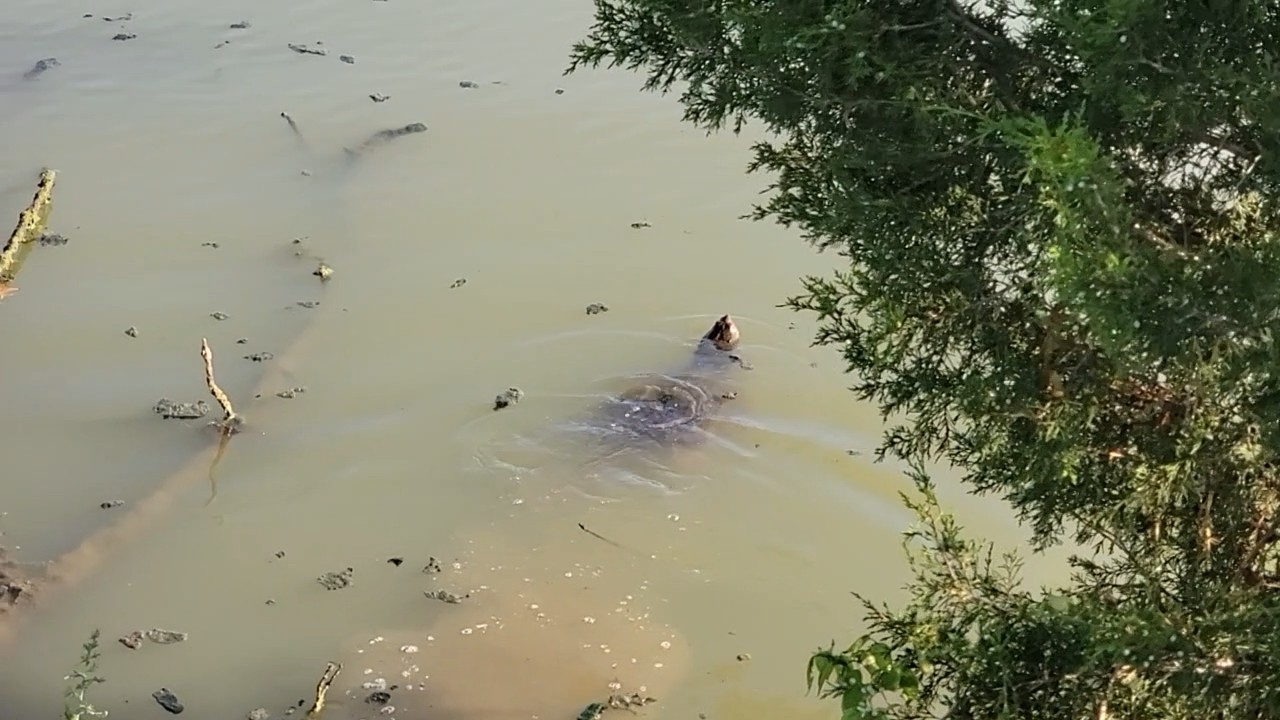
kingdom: Animalia
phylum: Chordata
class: Testudines
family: Chelydridae
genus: Chelydra
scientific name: Chelydra serpentina
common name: Common snapping turtle
